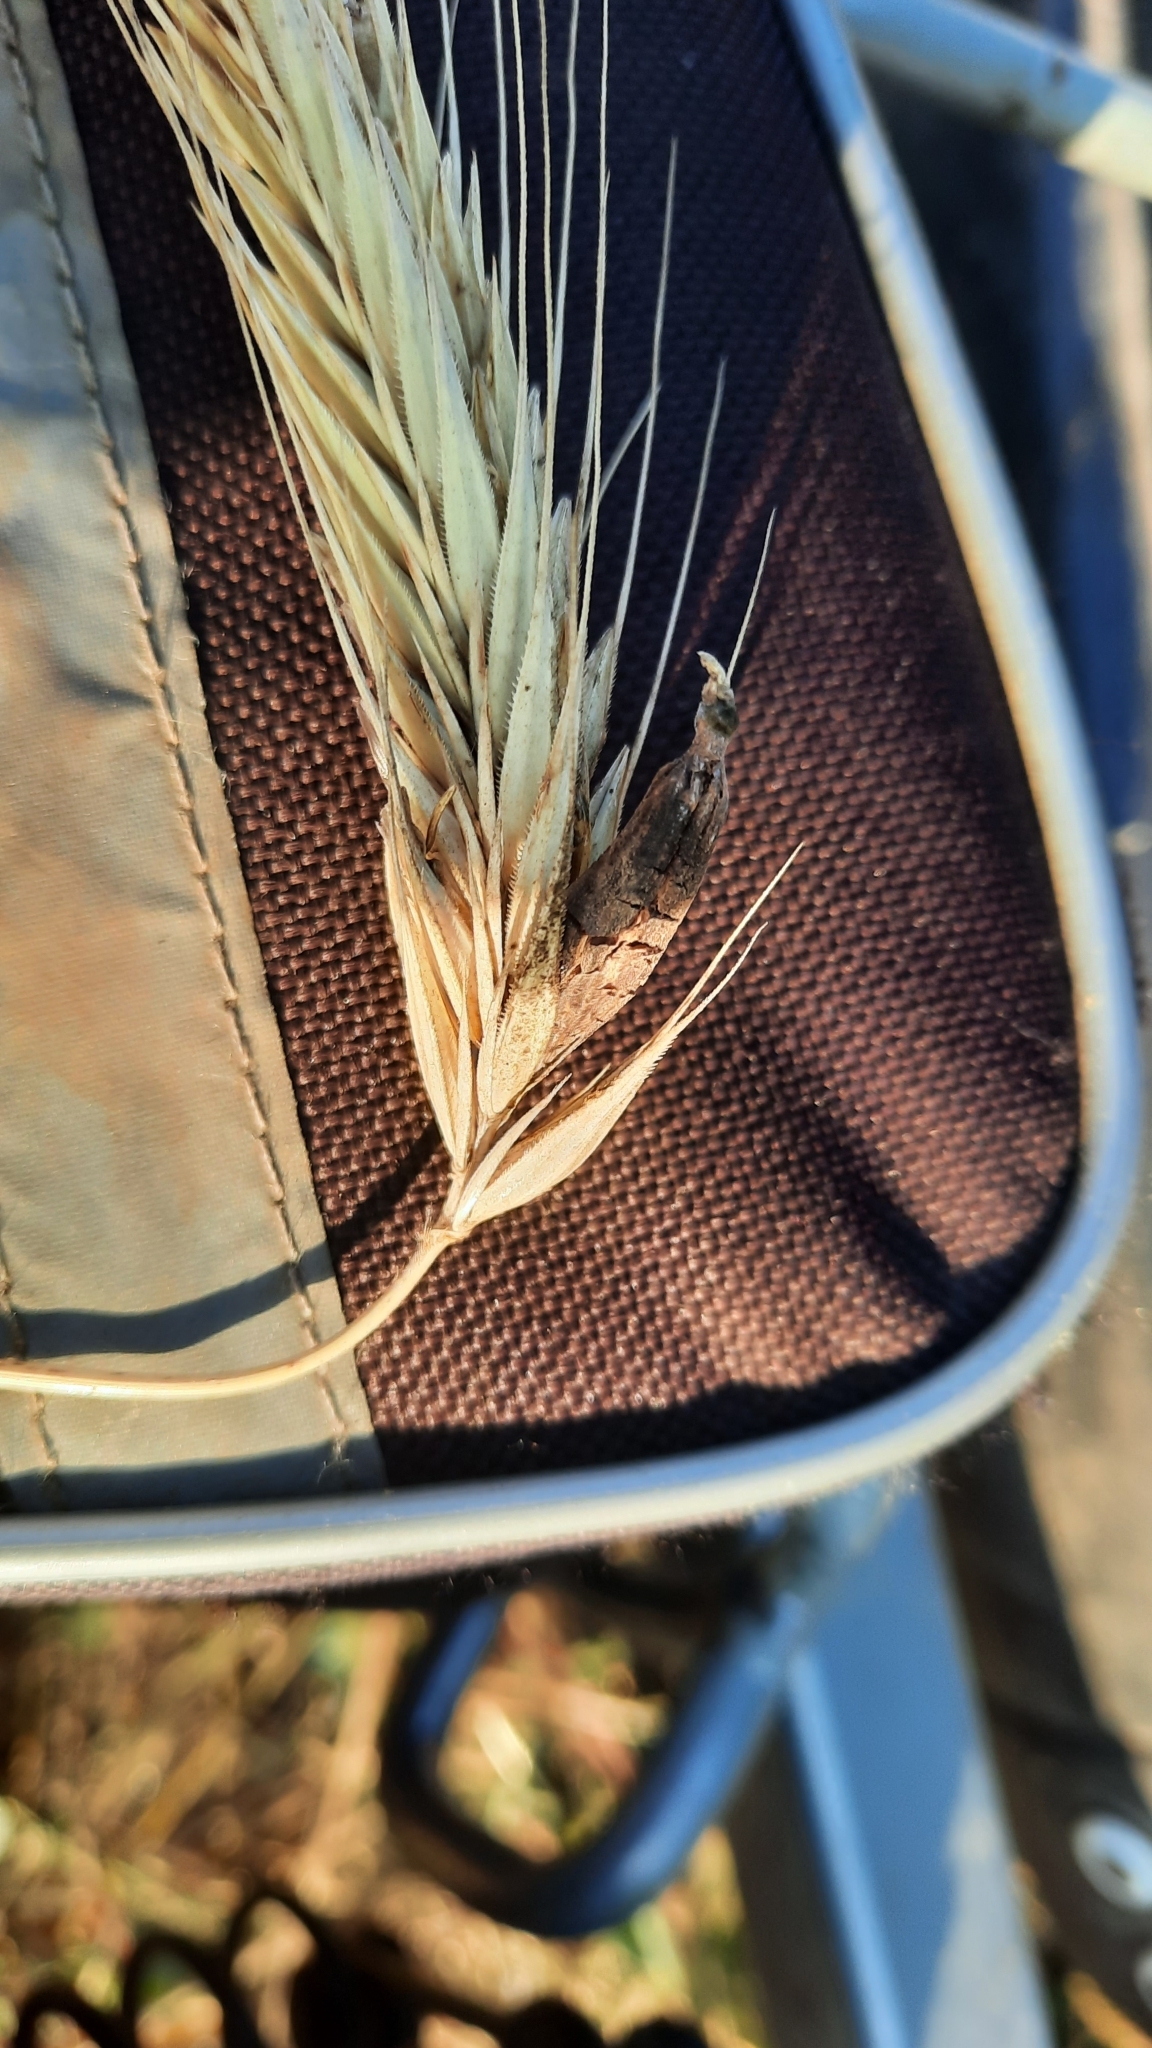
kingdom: Fungi
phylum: Ascomycota
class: Sordariomycetes
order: Hypocreales
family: Clavicipitaceae
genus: Claviceps
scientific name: Claviceps purpurea
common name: Rye ergot
